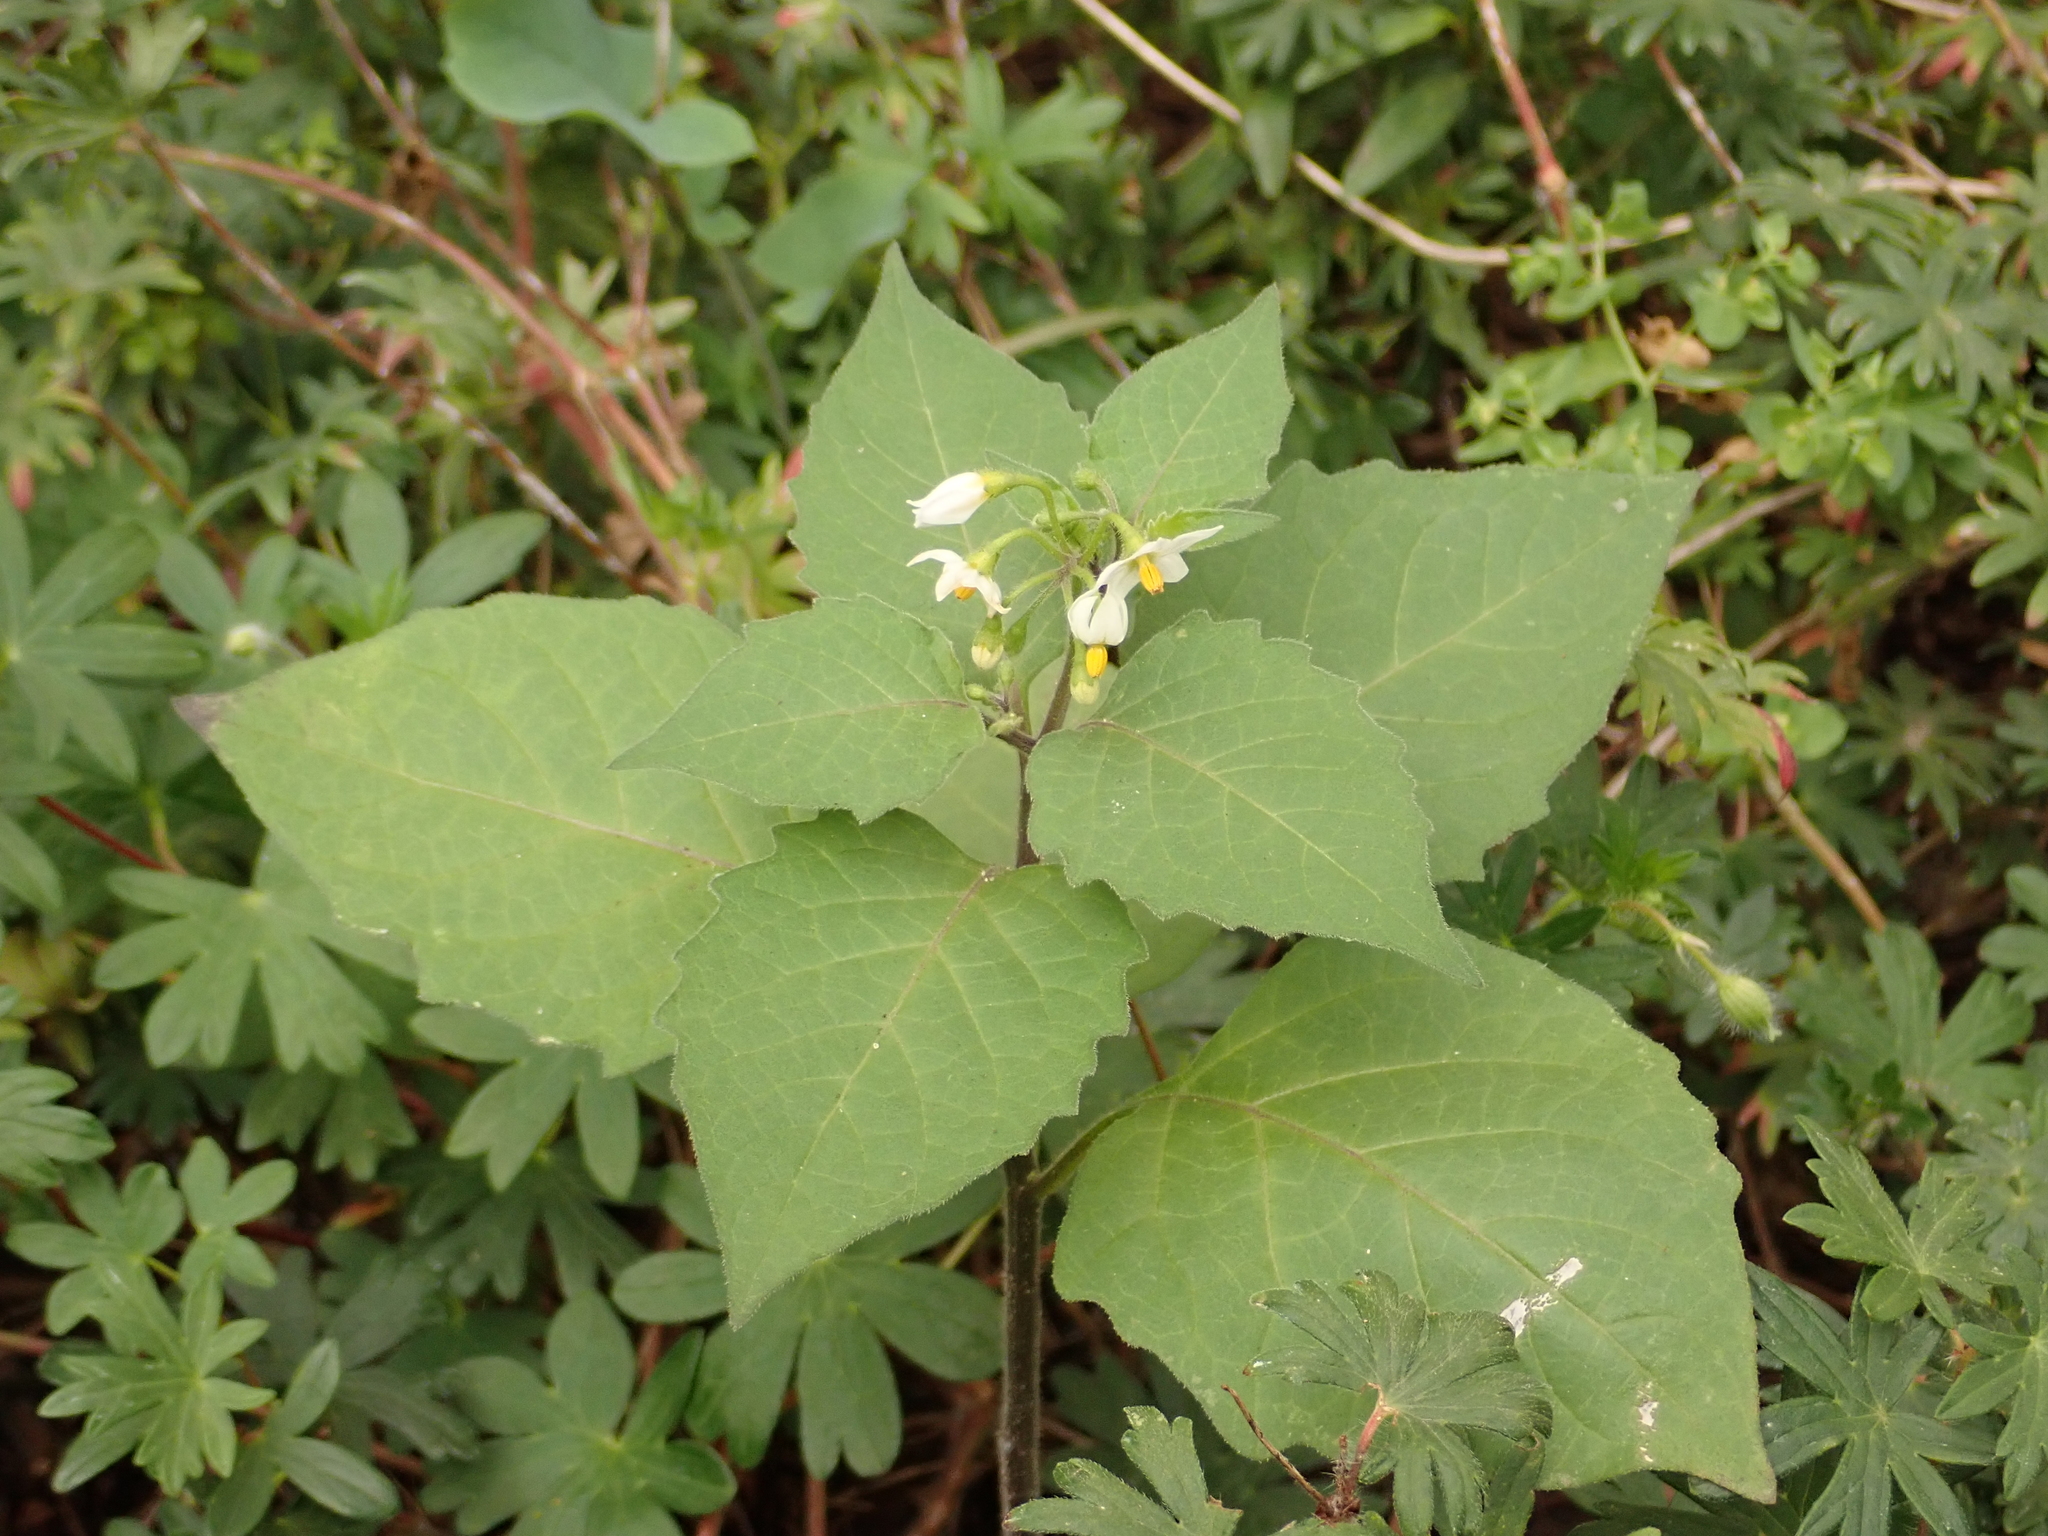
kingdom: Plantae
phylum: Tracheophyta
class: Magnoliopsida
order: Solanales
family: Solanaceae
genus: Solanum
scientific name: Solanum nigrum
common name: Black nightshade
